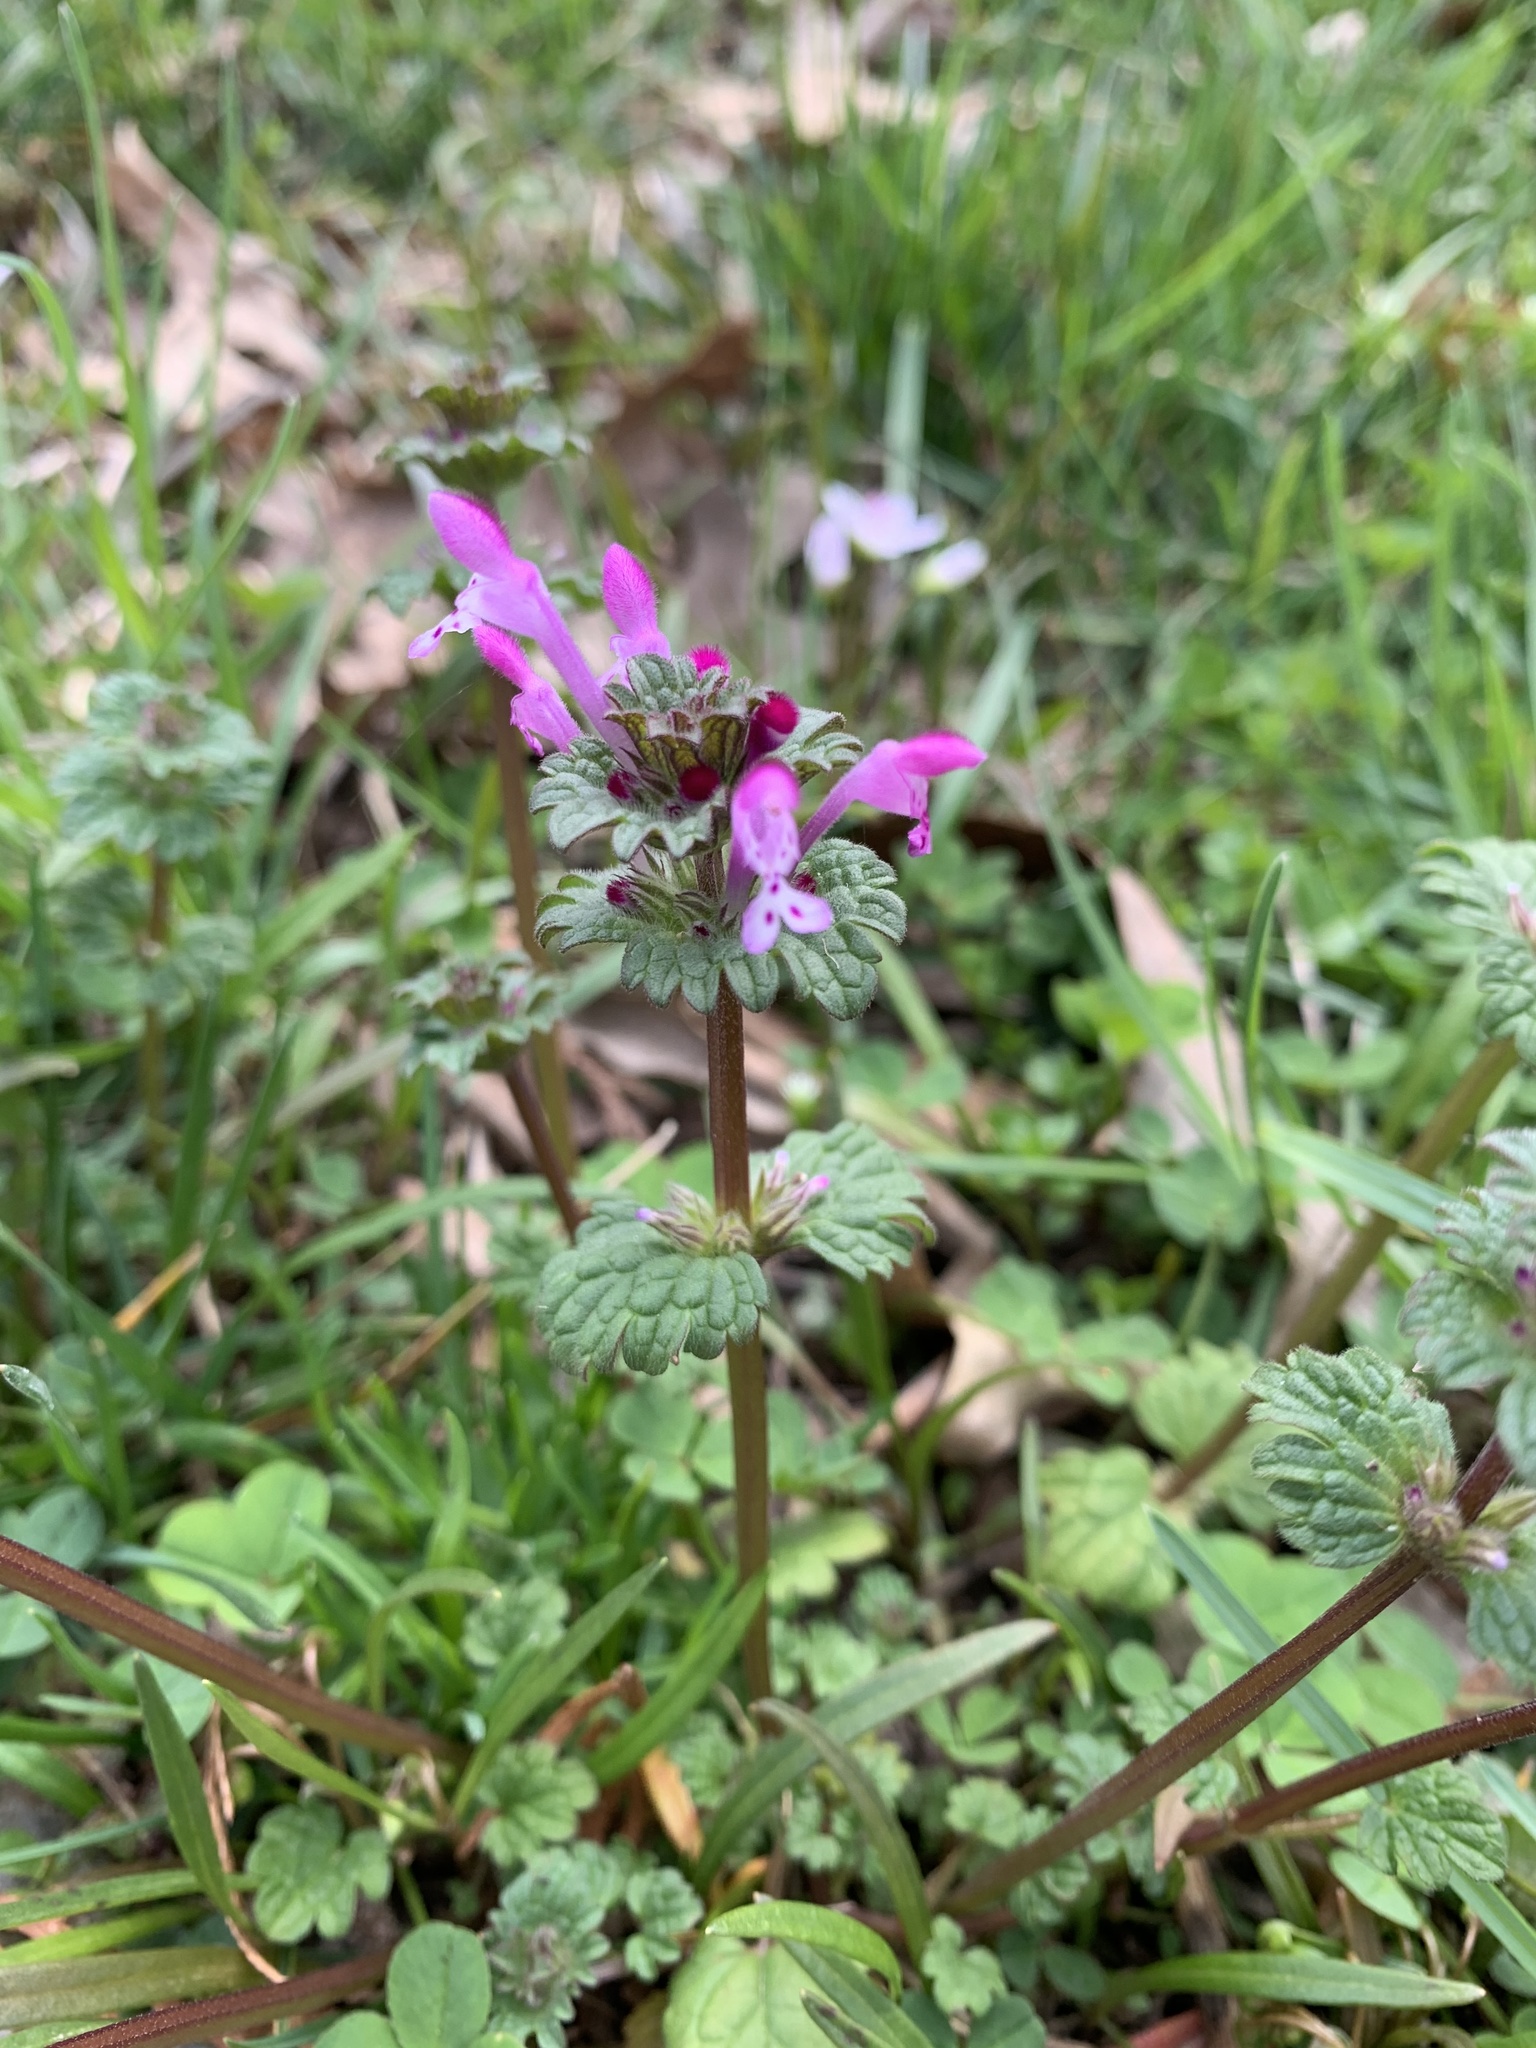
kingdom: Plantae
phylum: Tracheophyta
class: Magnoliopsida
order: Lamiales
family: Lamiaceae
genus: Lamium
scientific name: Lamium amplexicaule
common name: Henbit dead-nettle
